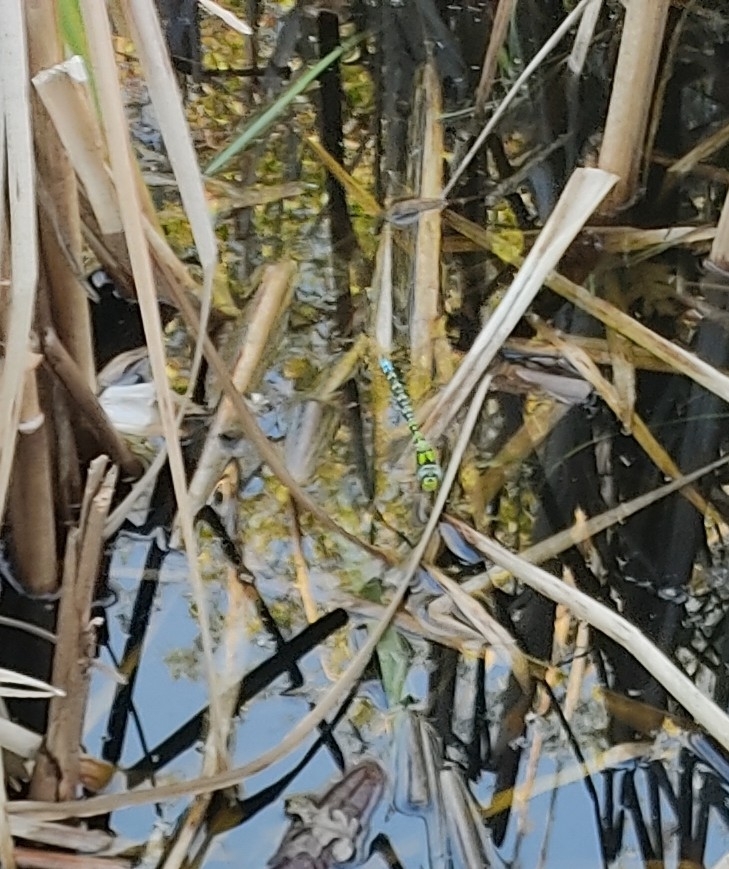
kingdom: Animalia
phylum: Arthropoda
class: Insecta
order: Odonata
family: Aeshnidae
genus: Aeshna
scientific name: Aeshna cyanea
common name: Southern hawker
